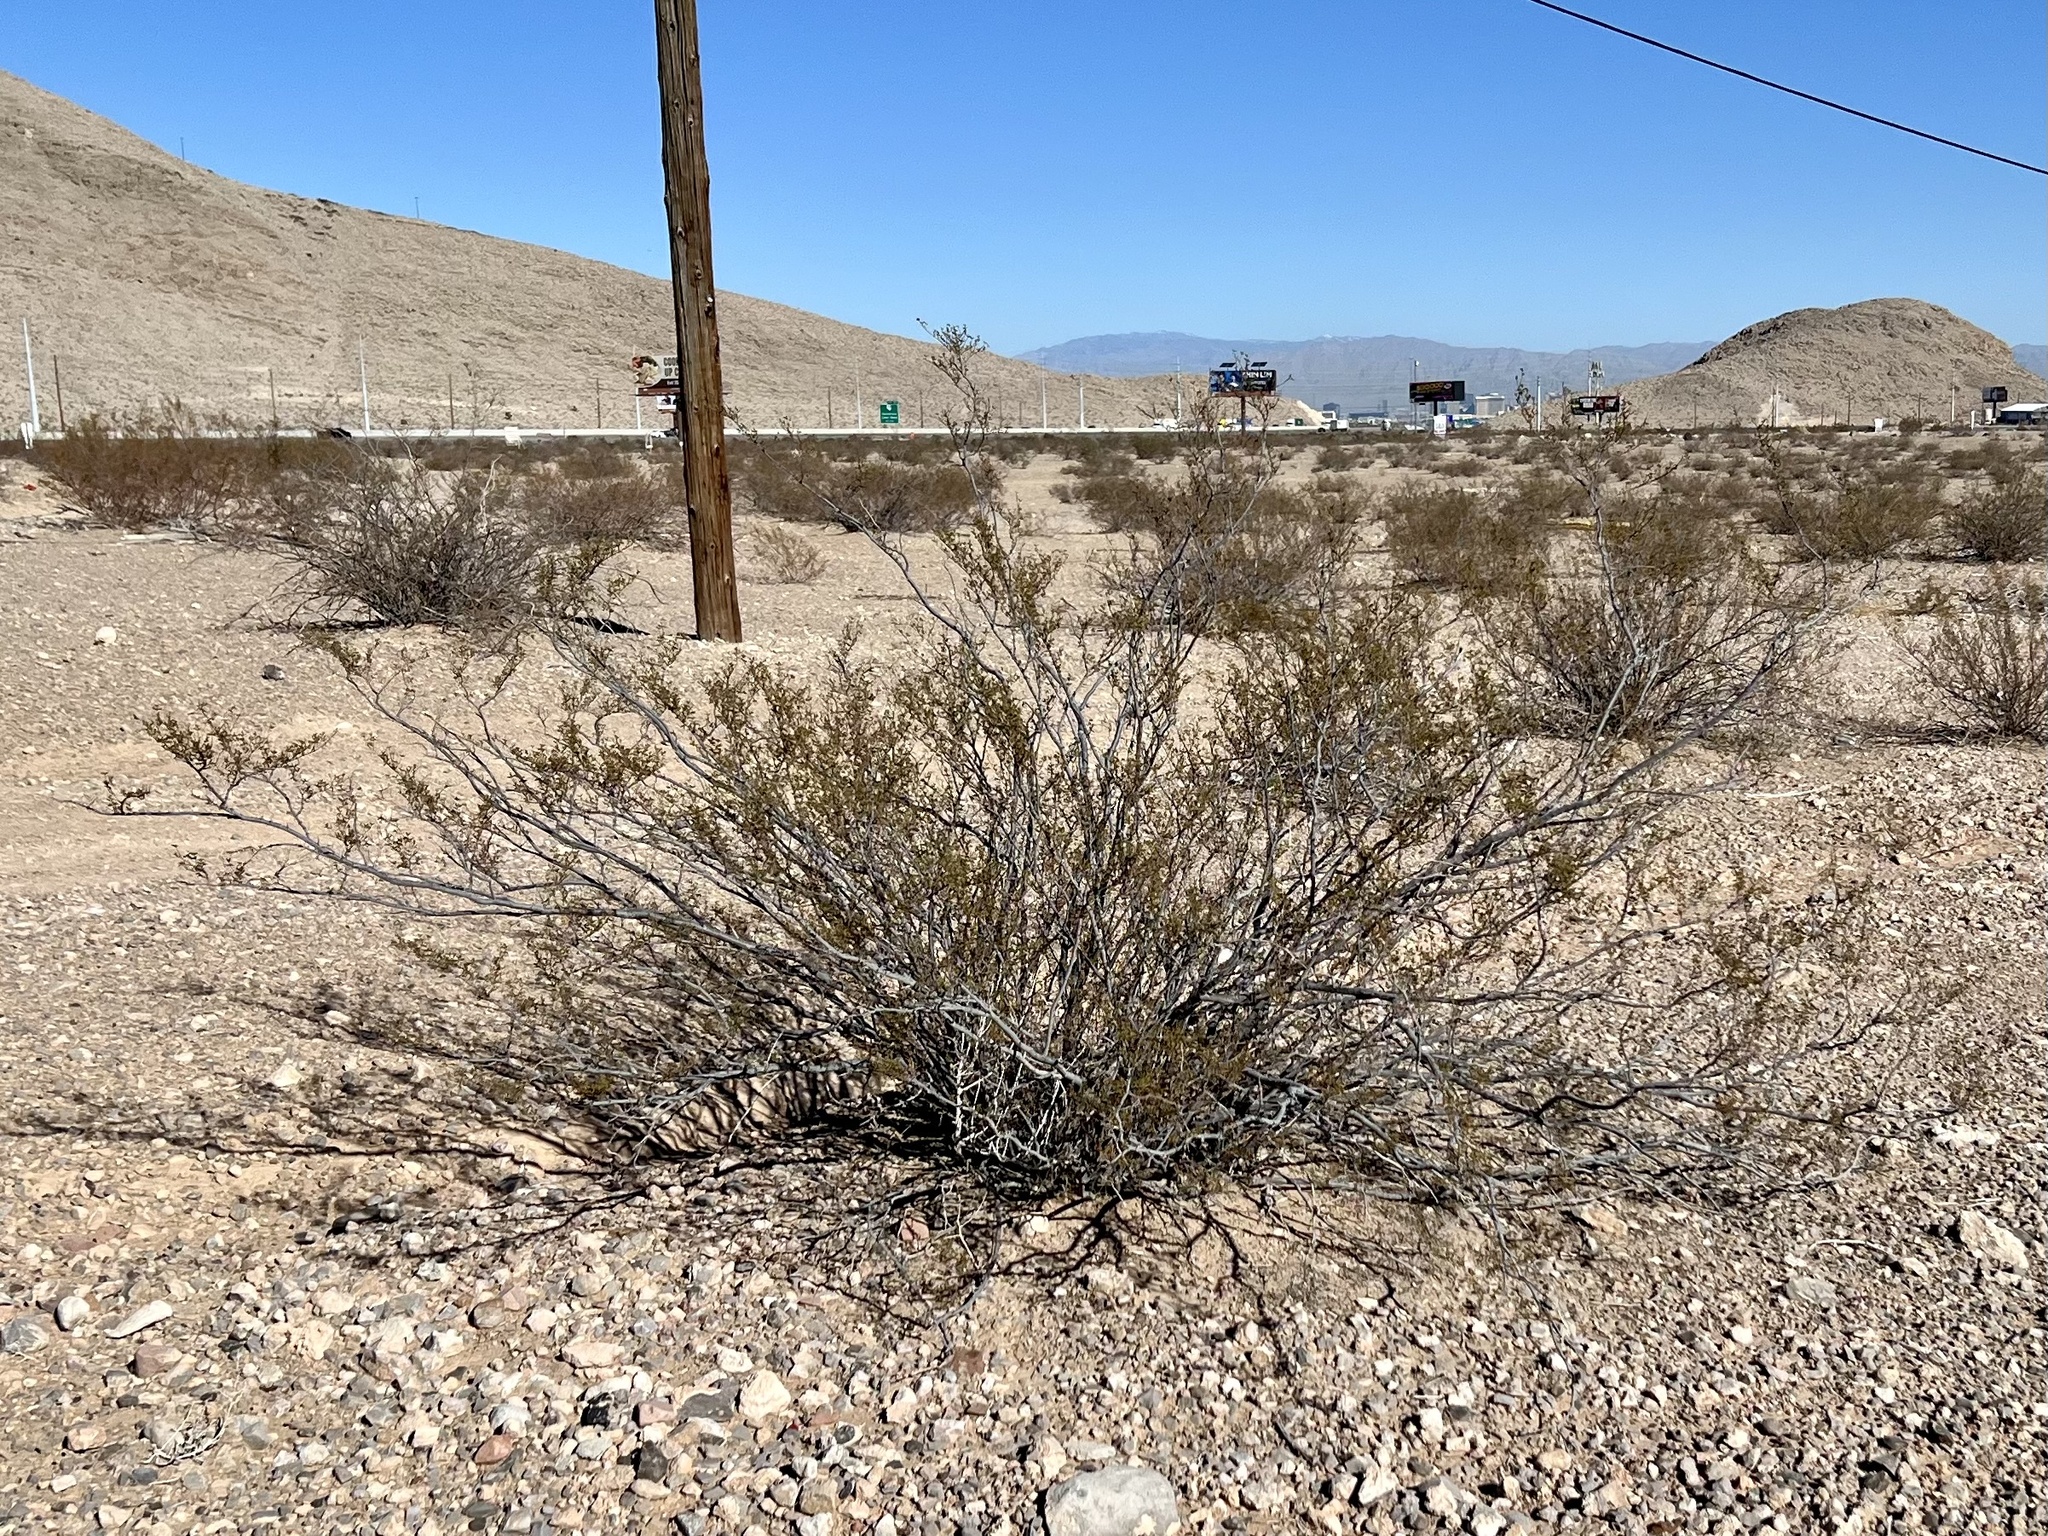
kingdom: Plantae
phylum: Tracheophyta
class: Magnoliopsida
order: Zygophyllales
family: Zygophyllaceae
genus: Larrea
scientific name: Larrea tridentata
